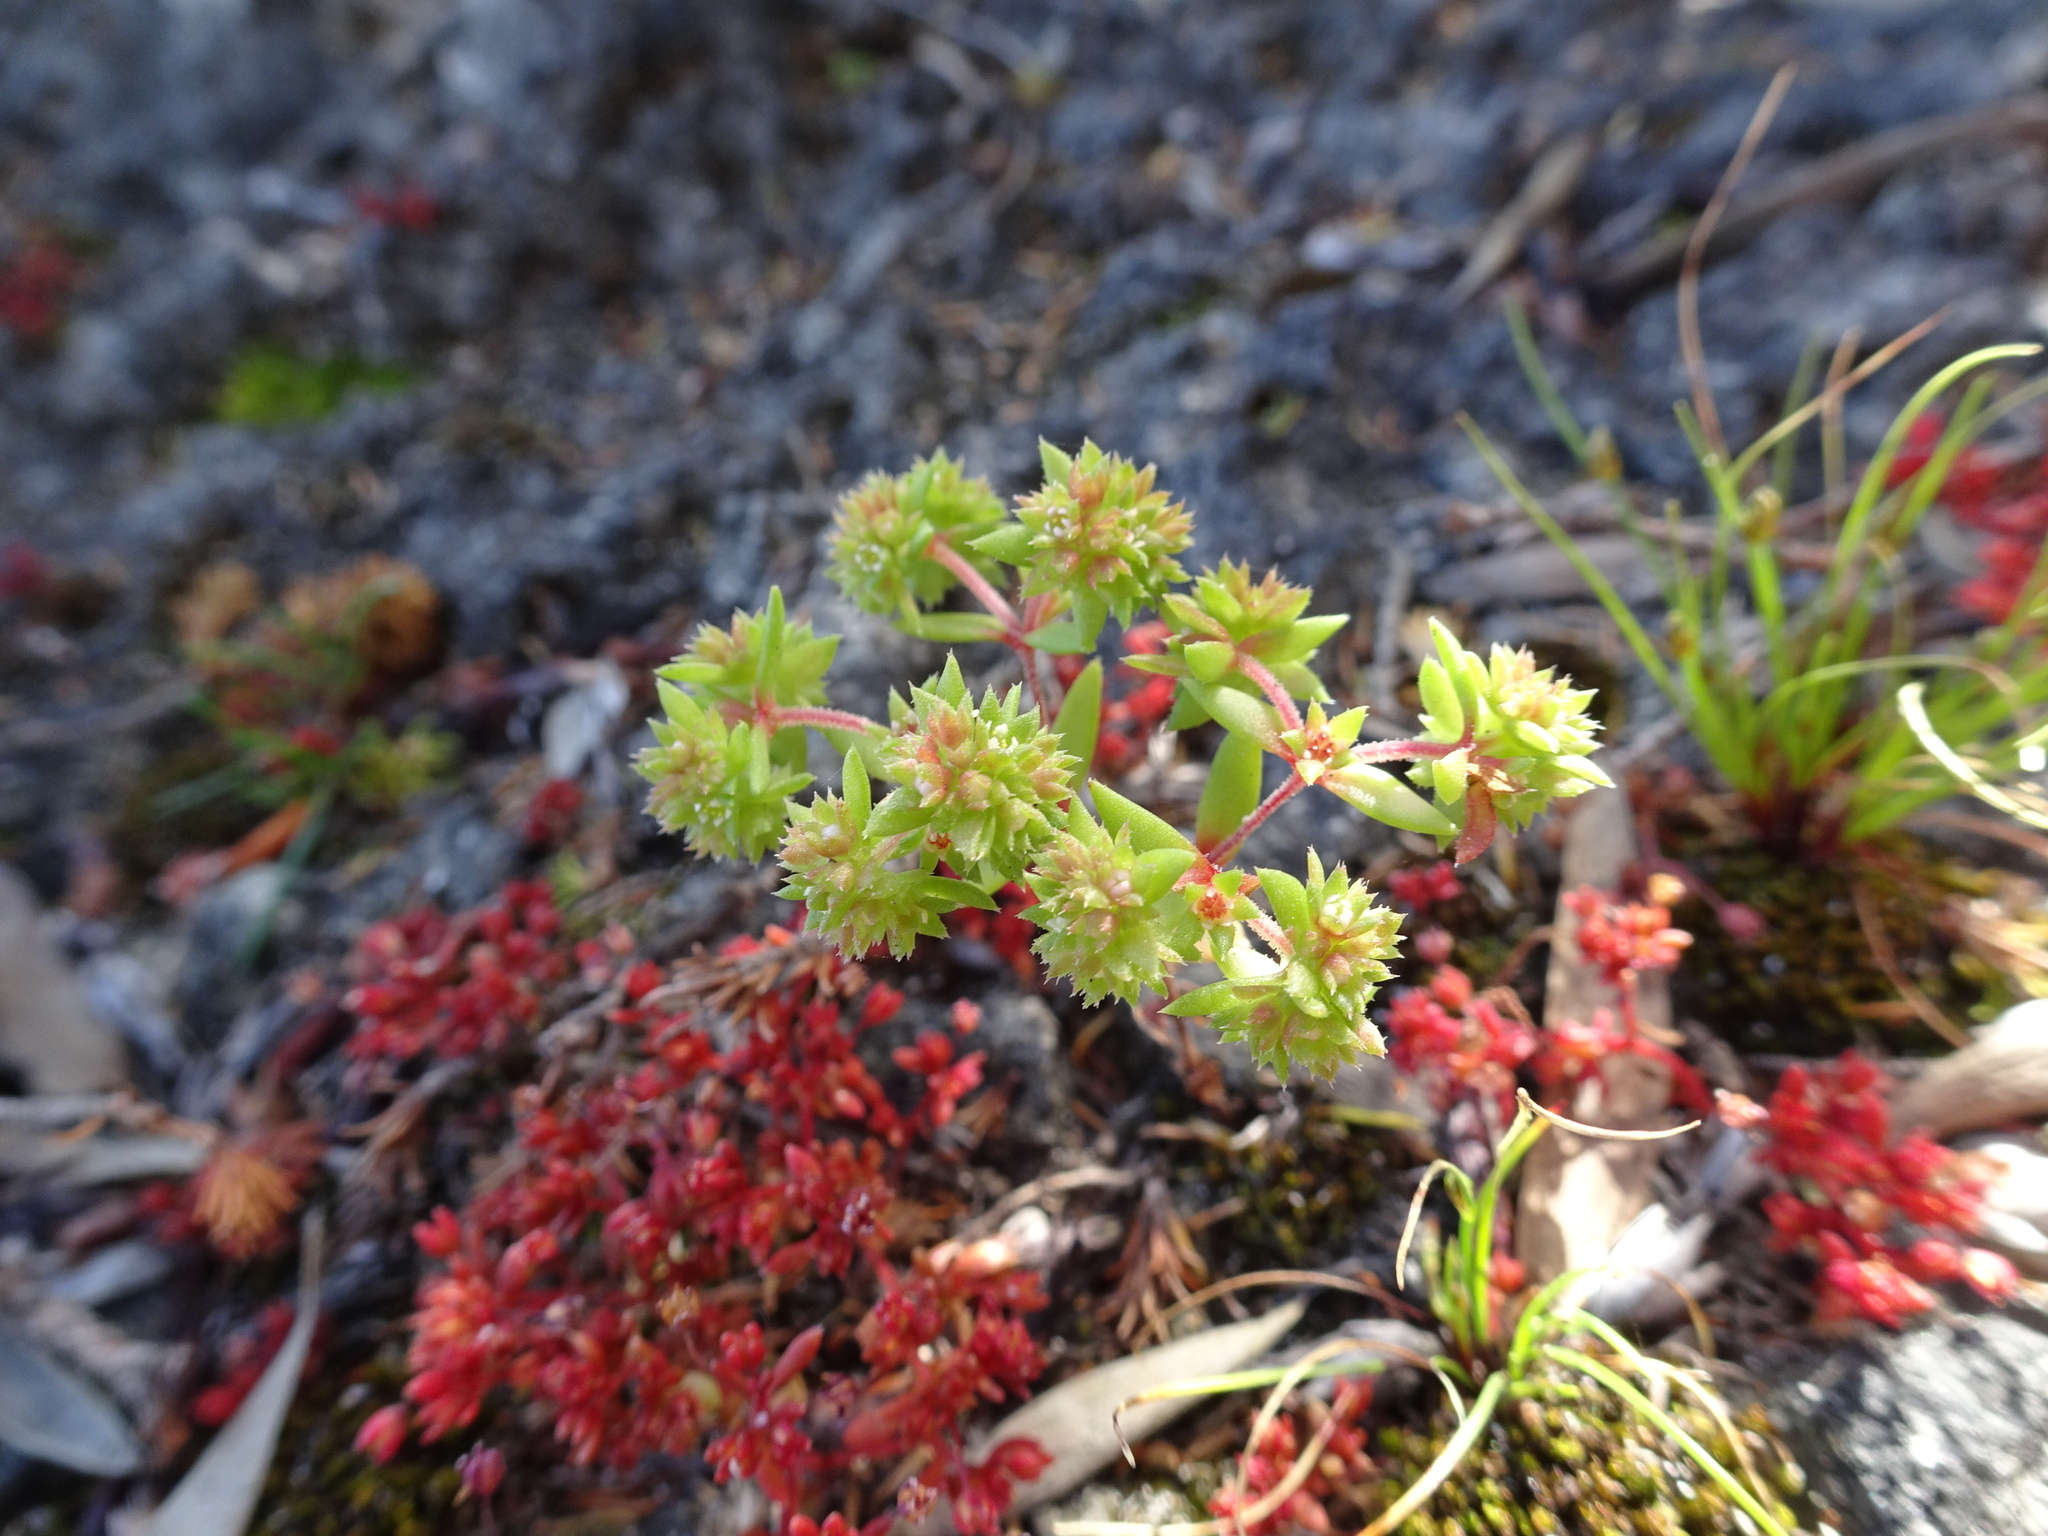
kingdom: Plantae
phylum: Tracheophyta
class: Magnoliopsida
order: Saxifragales
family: Crassulaceae
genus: Crassula
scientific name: Crassula glomerata
